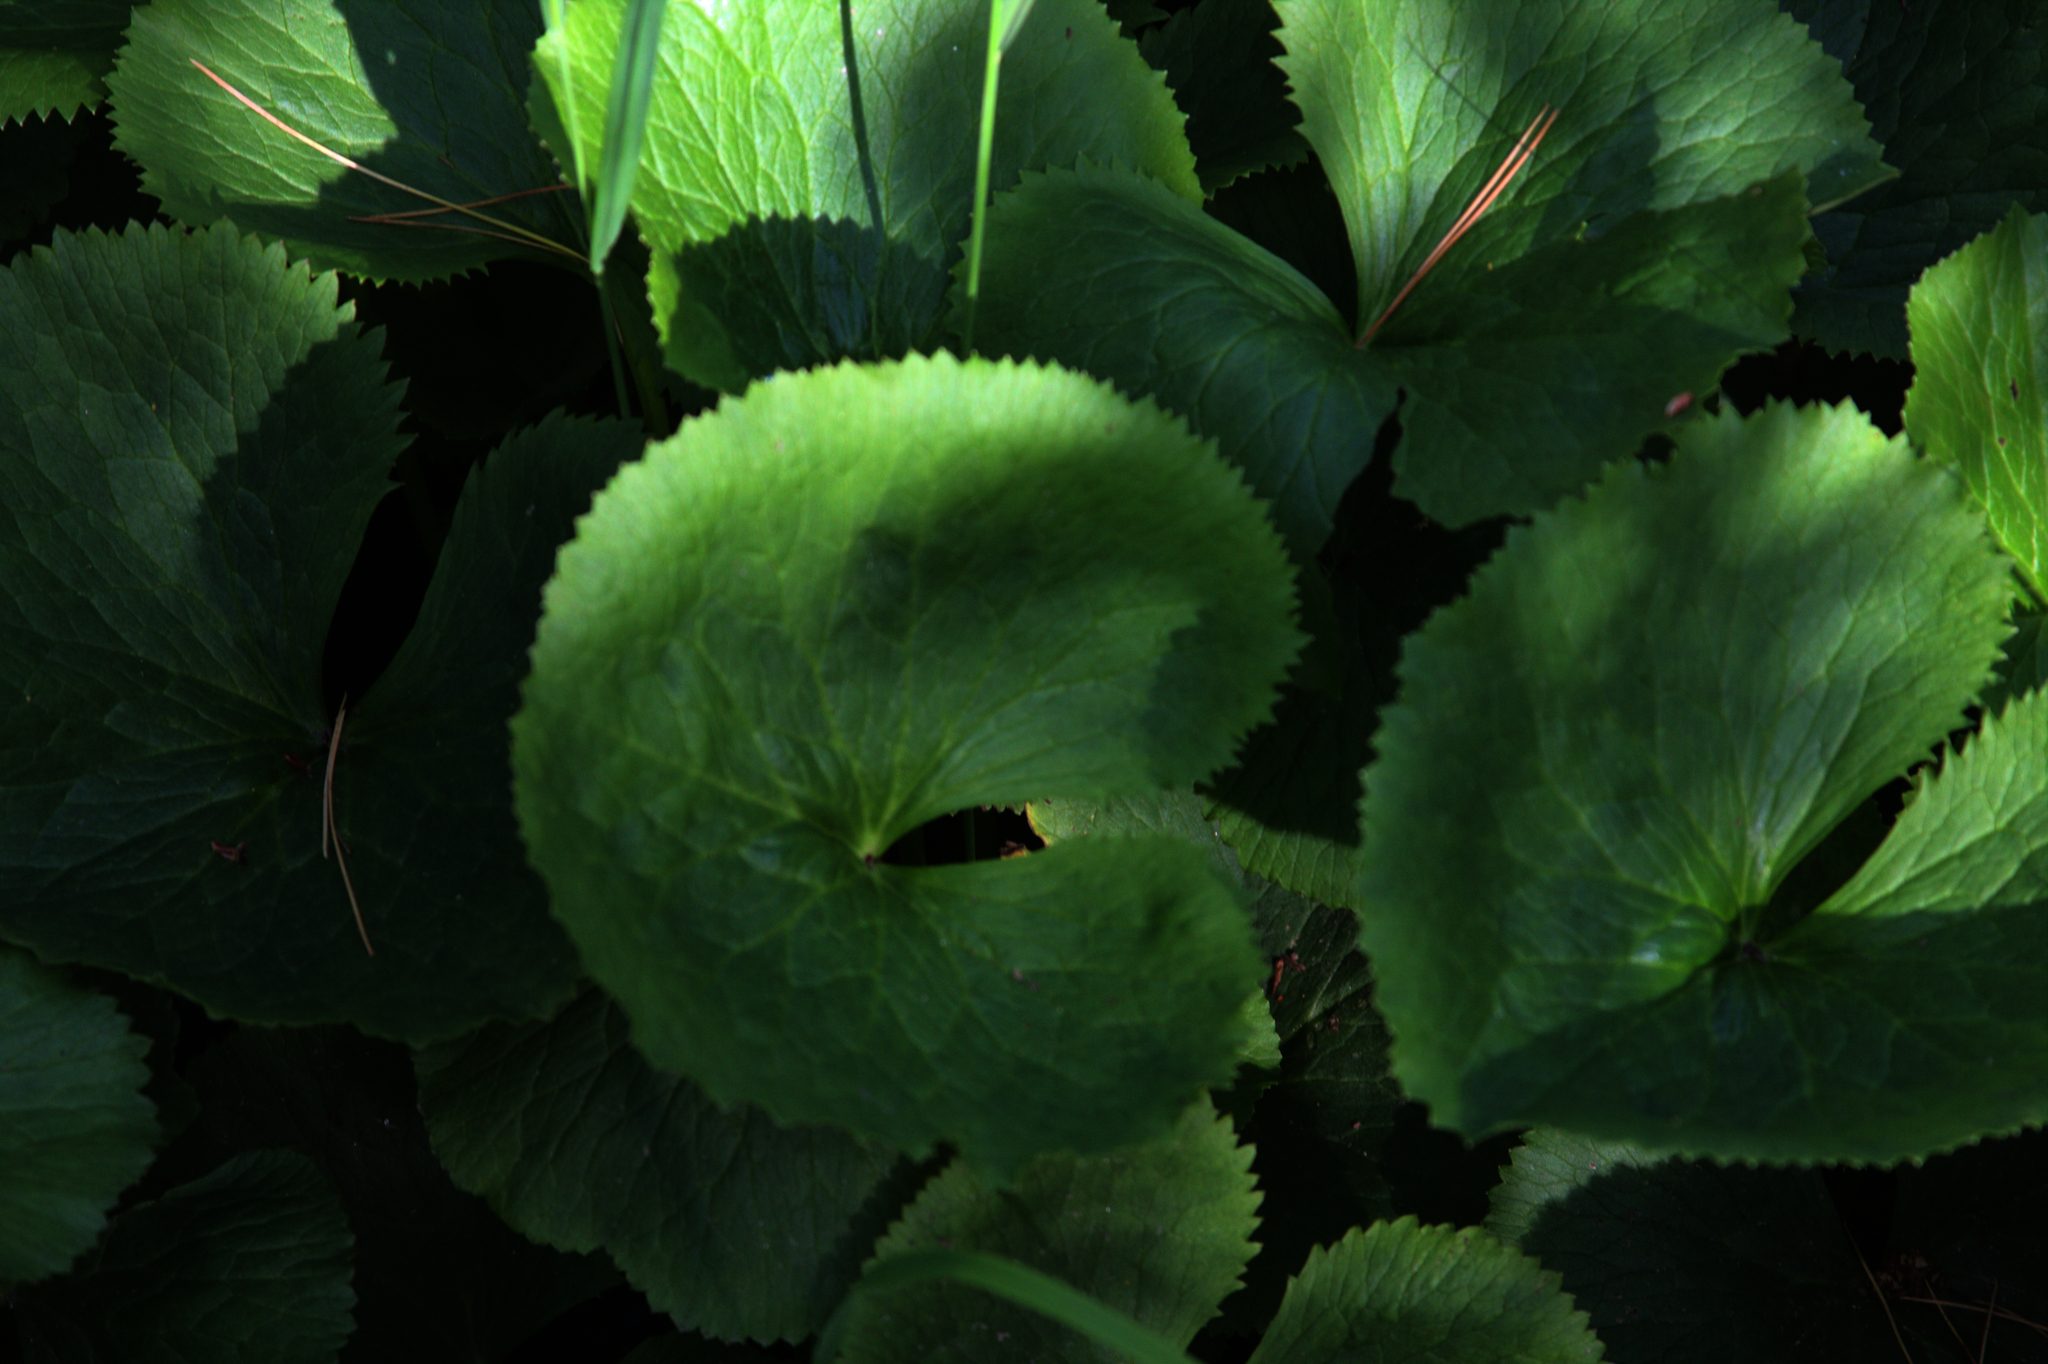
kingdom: Plantae
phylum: Tracheophyta
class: Magnoliopsida
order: Ranunculales
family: Ranunculaceae
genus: Caltha
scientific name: Caltha palustris
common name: Marsh marigold
